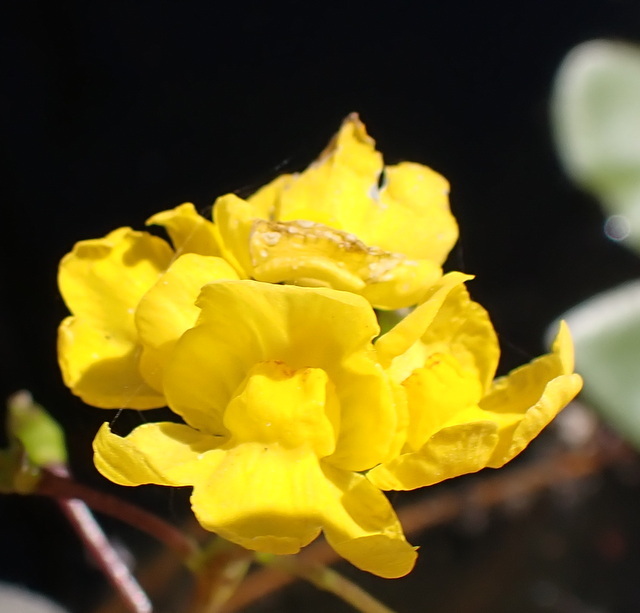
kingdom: Plantae
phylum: Tracheophyta
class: Magnoliopsida
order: Lamiales
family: Lentibulariaceae
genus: Utricularia
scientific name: Utricularia inflata
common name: Floating bladderwort
